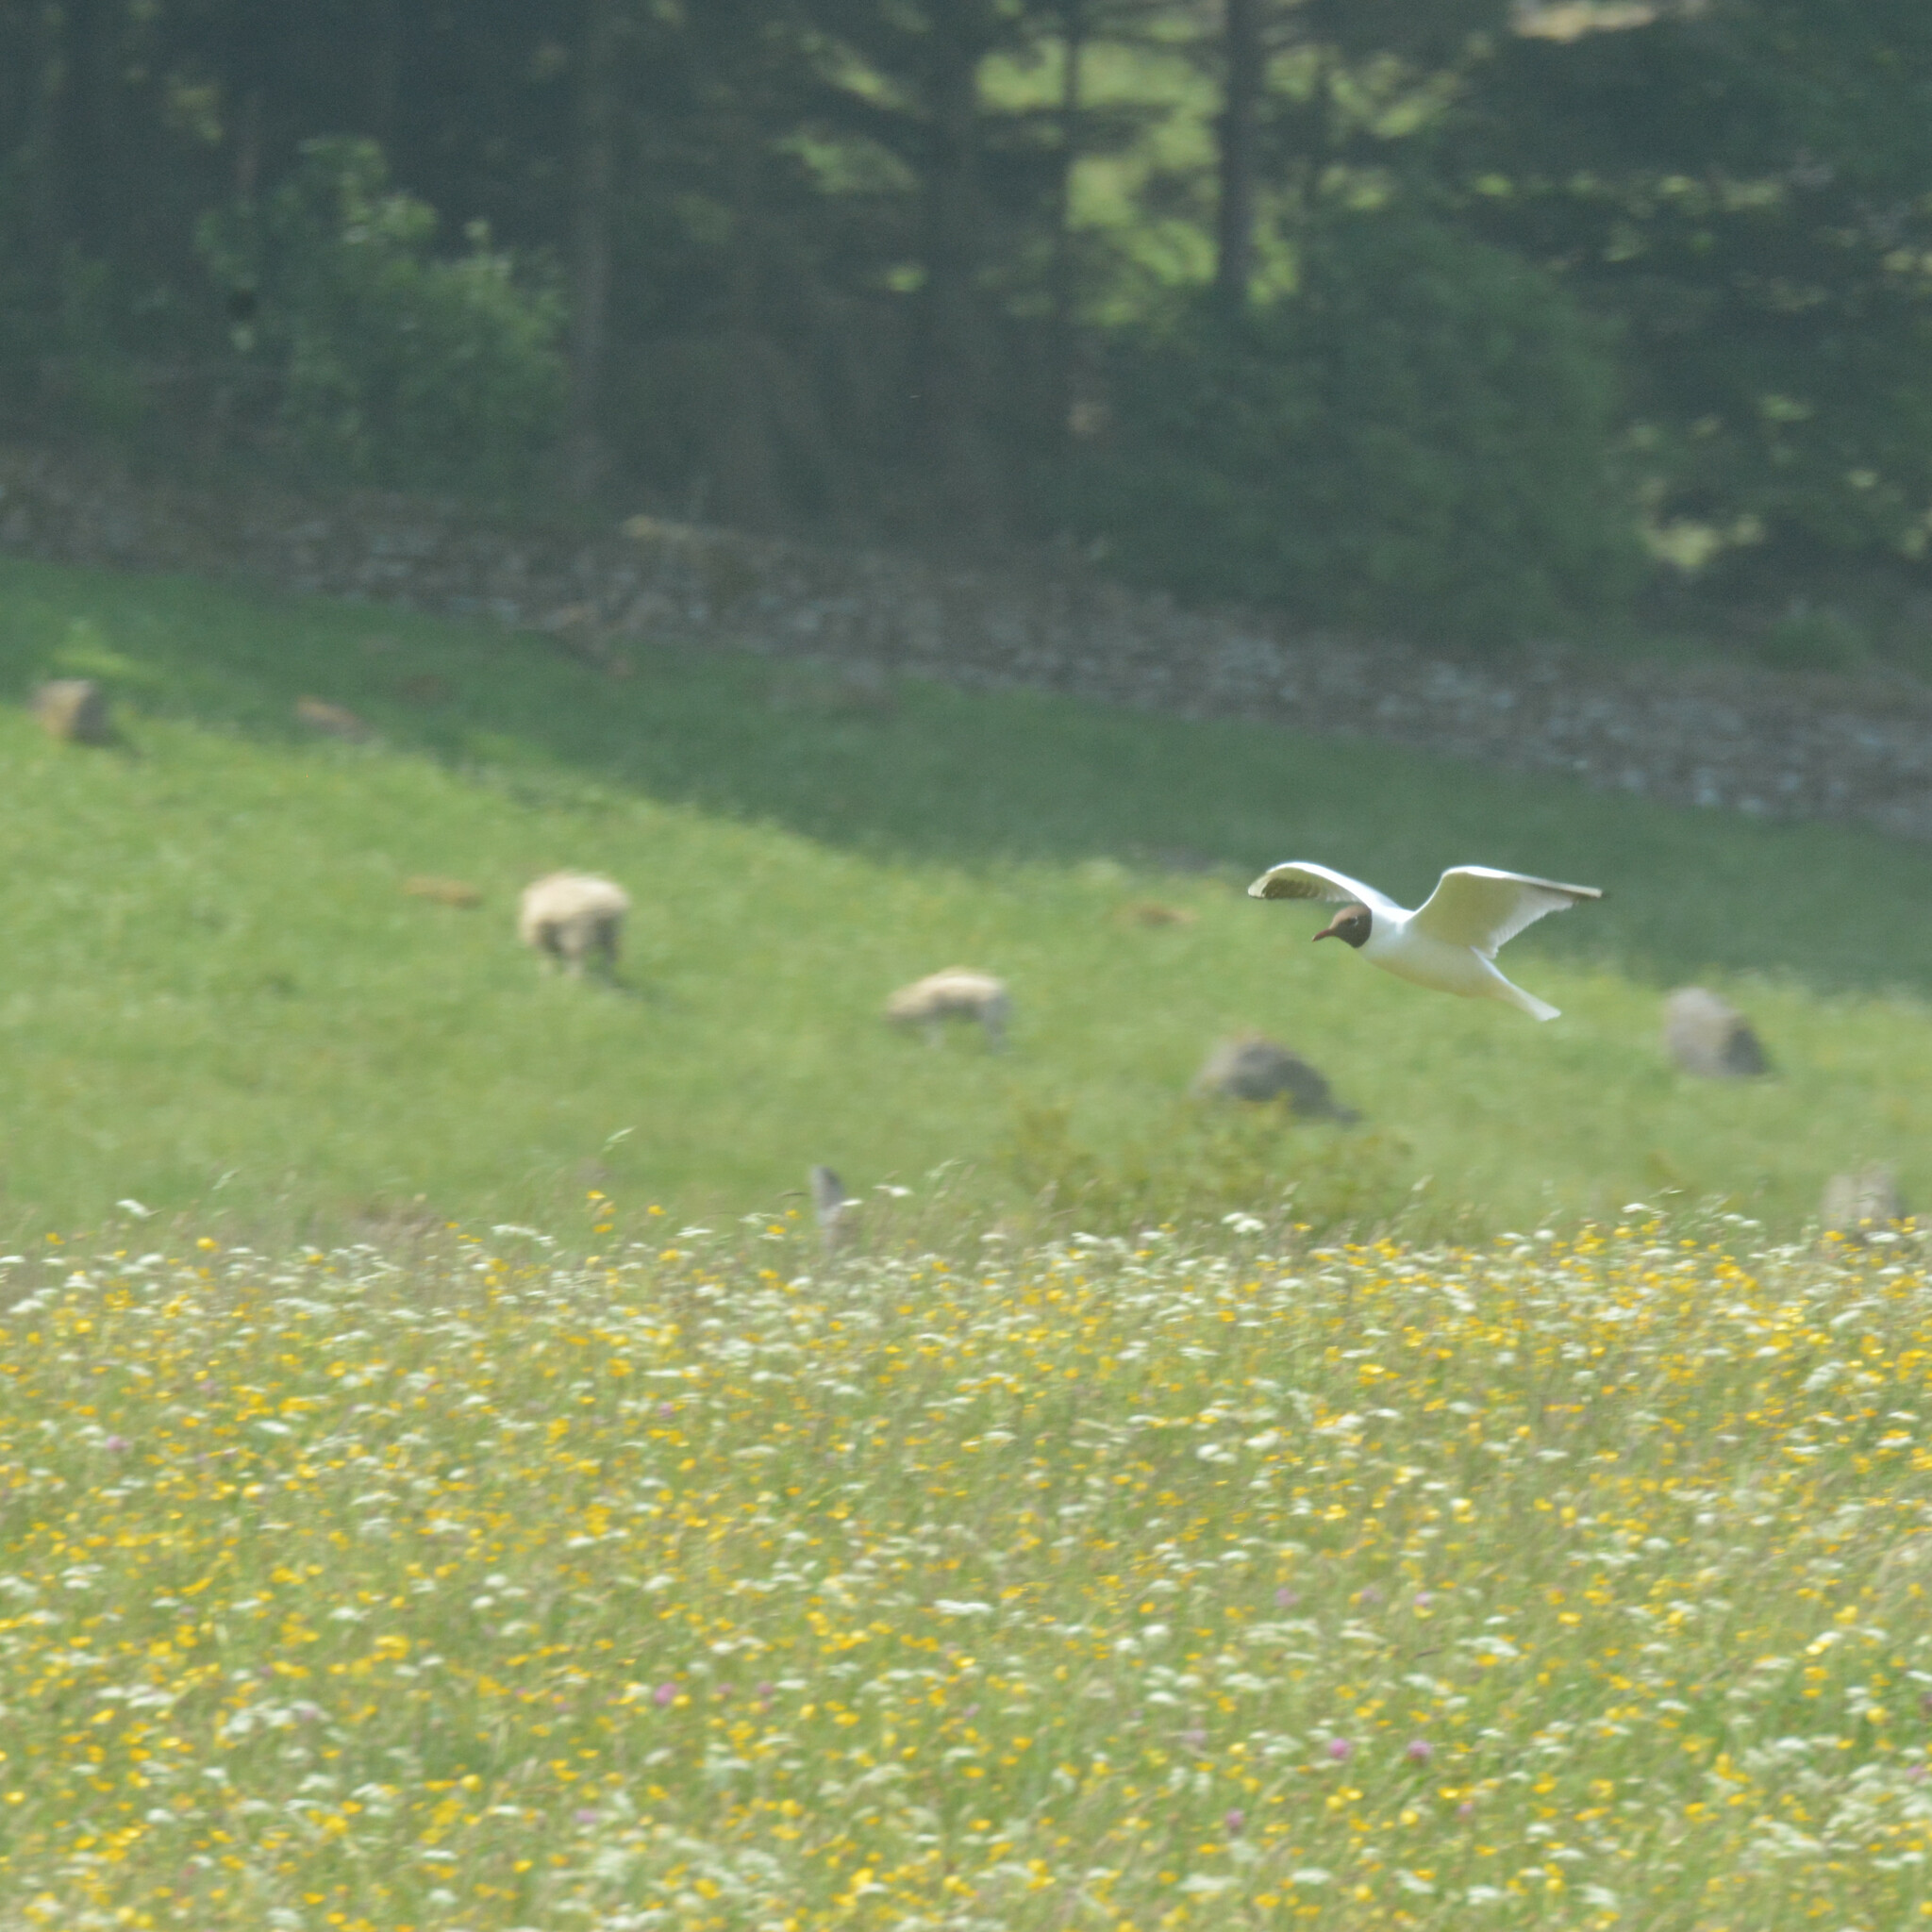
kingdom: Animalia
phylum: Chordata
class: Aves
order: Charadriiformes
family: Laridae
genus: Chroicocephalus
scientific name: Chroicocephalus ridibundus
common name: Black-headed gull
